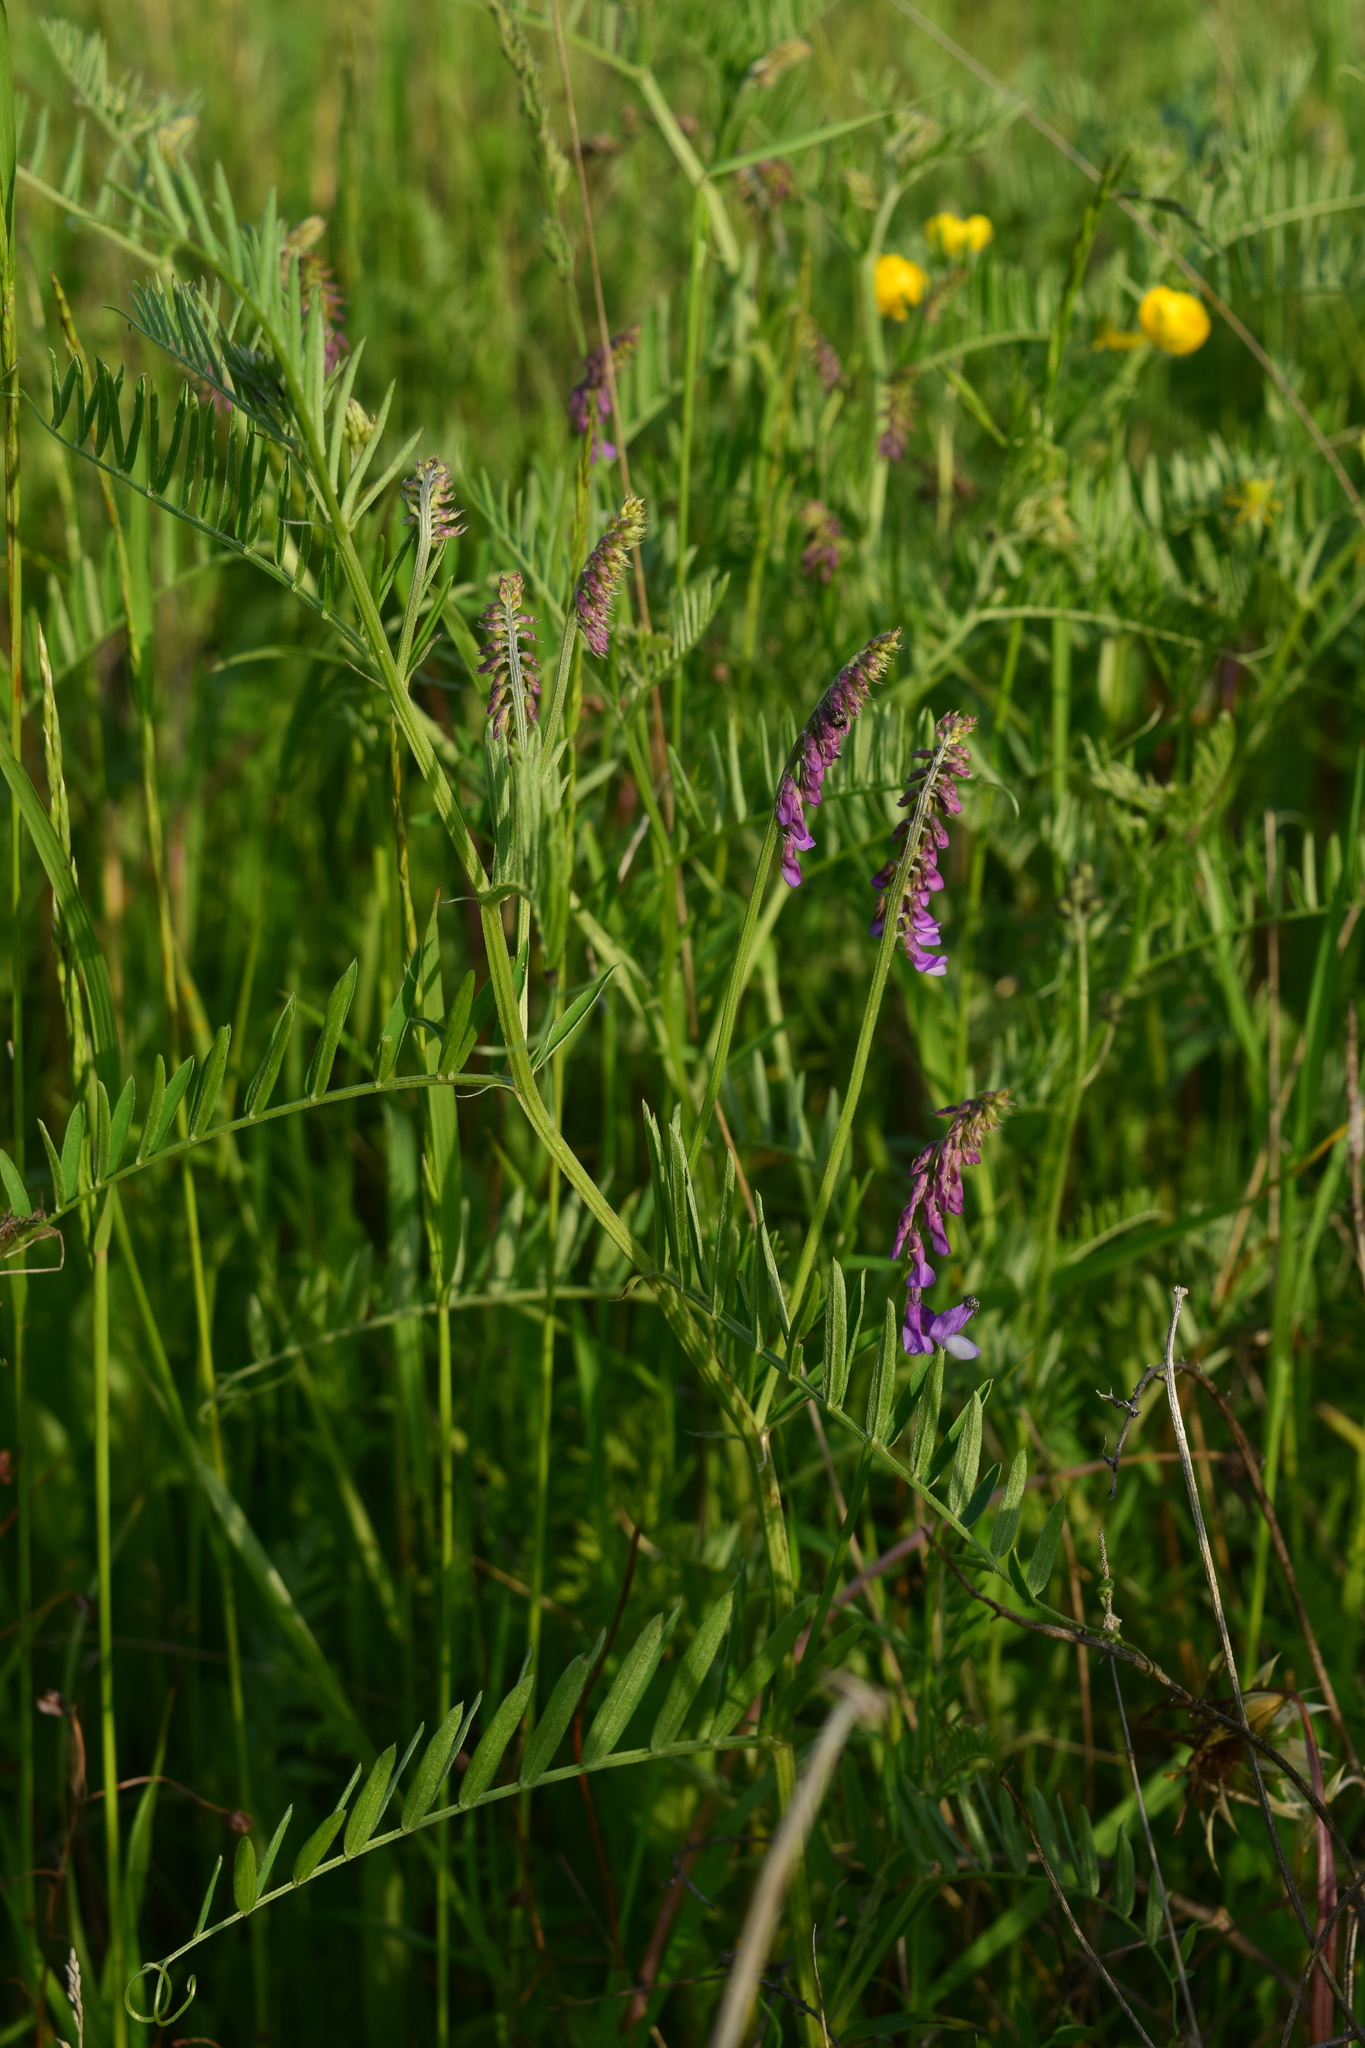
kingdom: Plantae
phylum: Tracheophyta
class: Magnoliopsida
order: Fabales
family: Fabaceae
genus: Vicia
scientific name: Vicia tenuifolia
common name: Fine-leaved vetch
